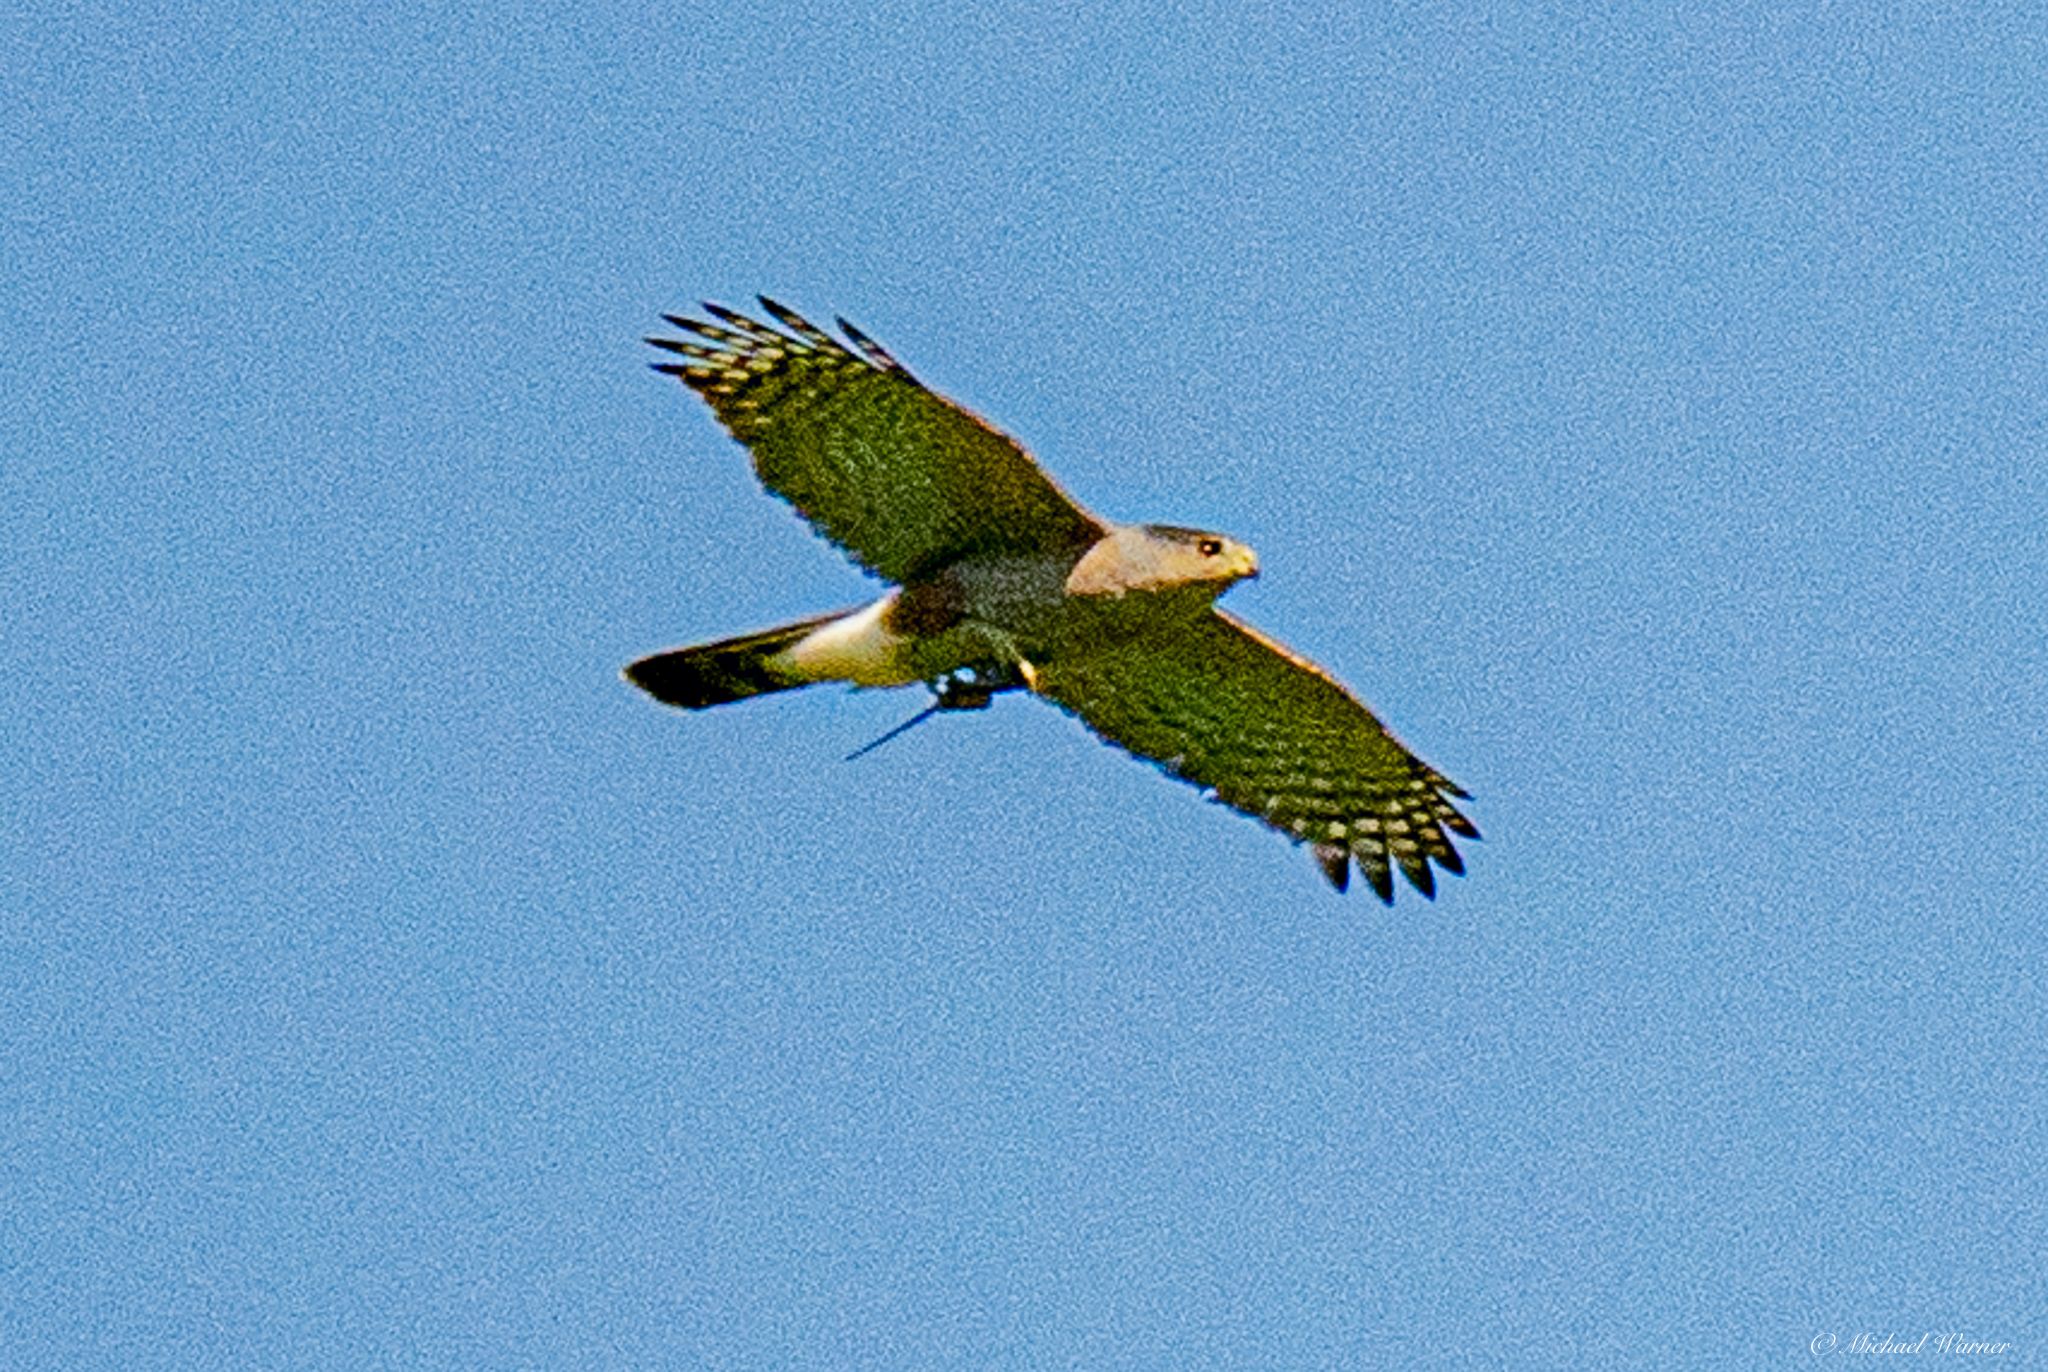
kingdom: Animalia
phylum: Chordata
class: Aves
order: Accipitriformes
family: Accipitridae
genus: Accipiter
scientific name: Accipiter cooperii
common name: Cooper's hawk
